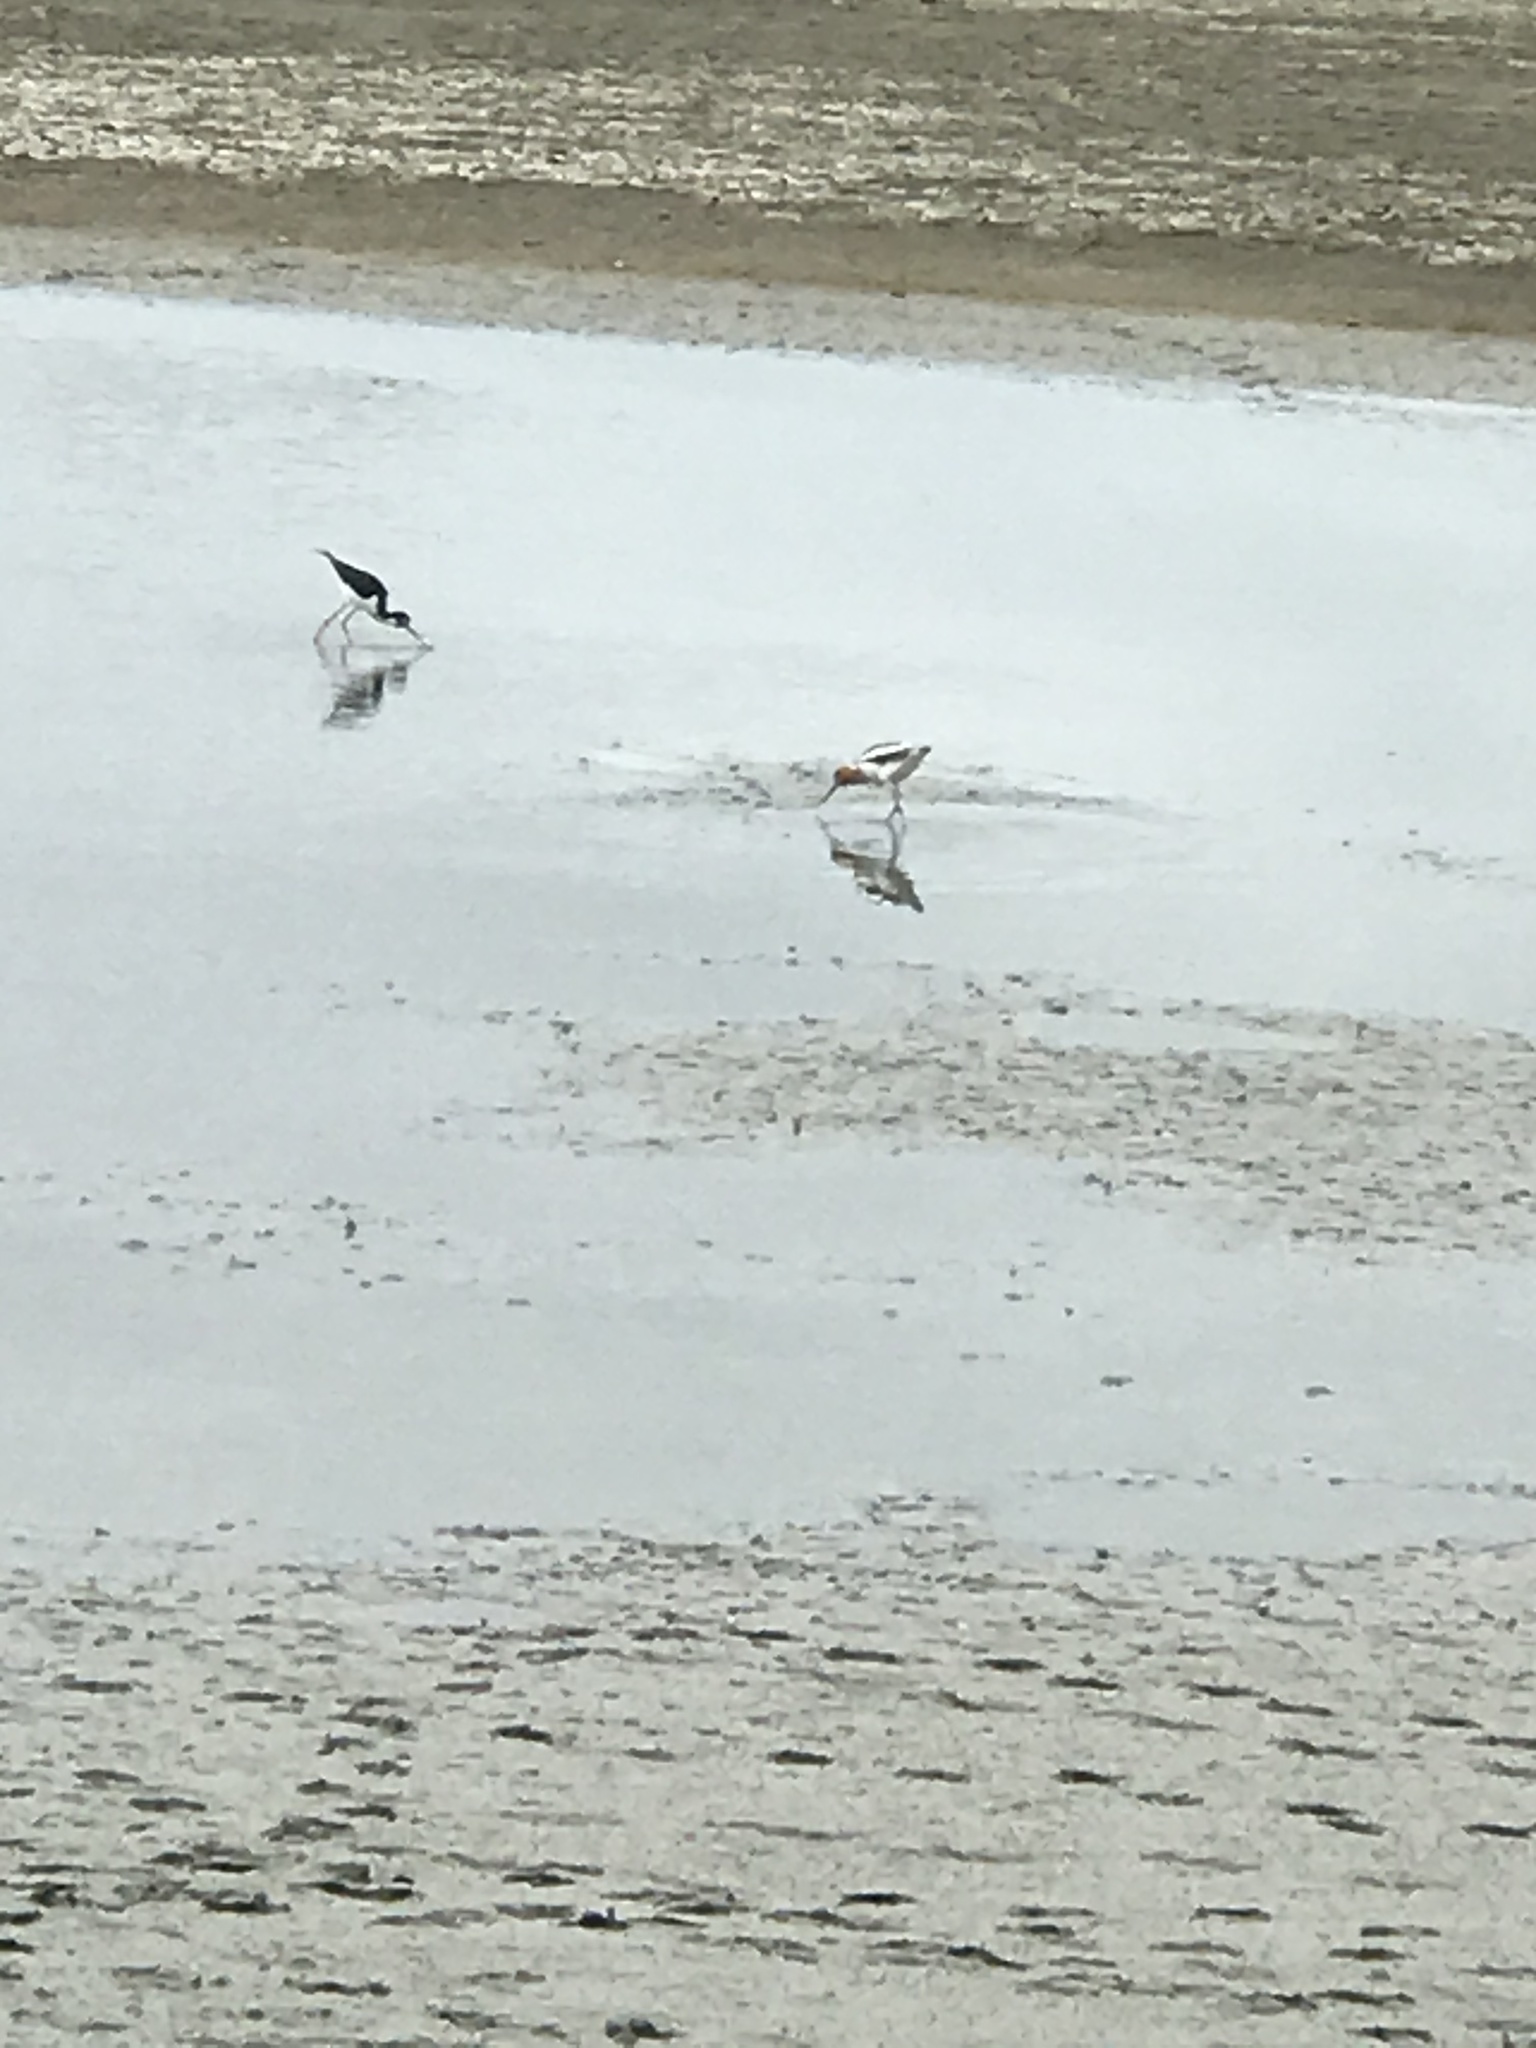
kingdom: Animalia
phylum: Chordata
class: Aves
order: Charadriiformes
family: Recurvirostridae
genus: Recurvirostra
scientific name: Recurvirostra americana
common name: American avocet
